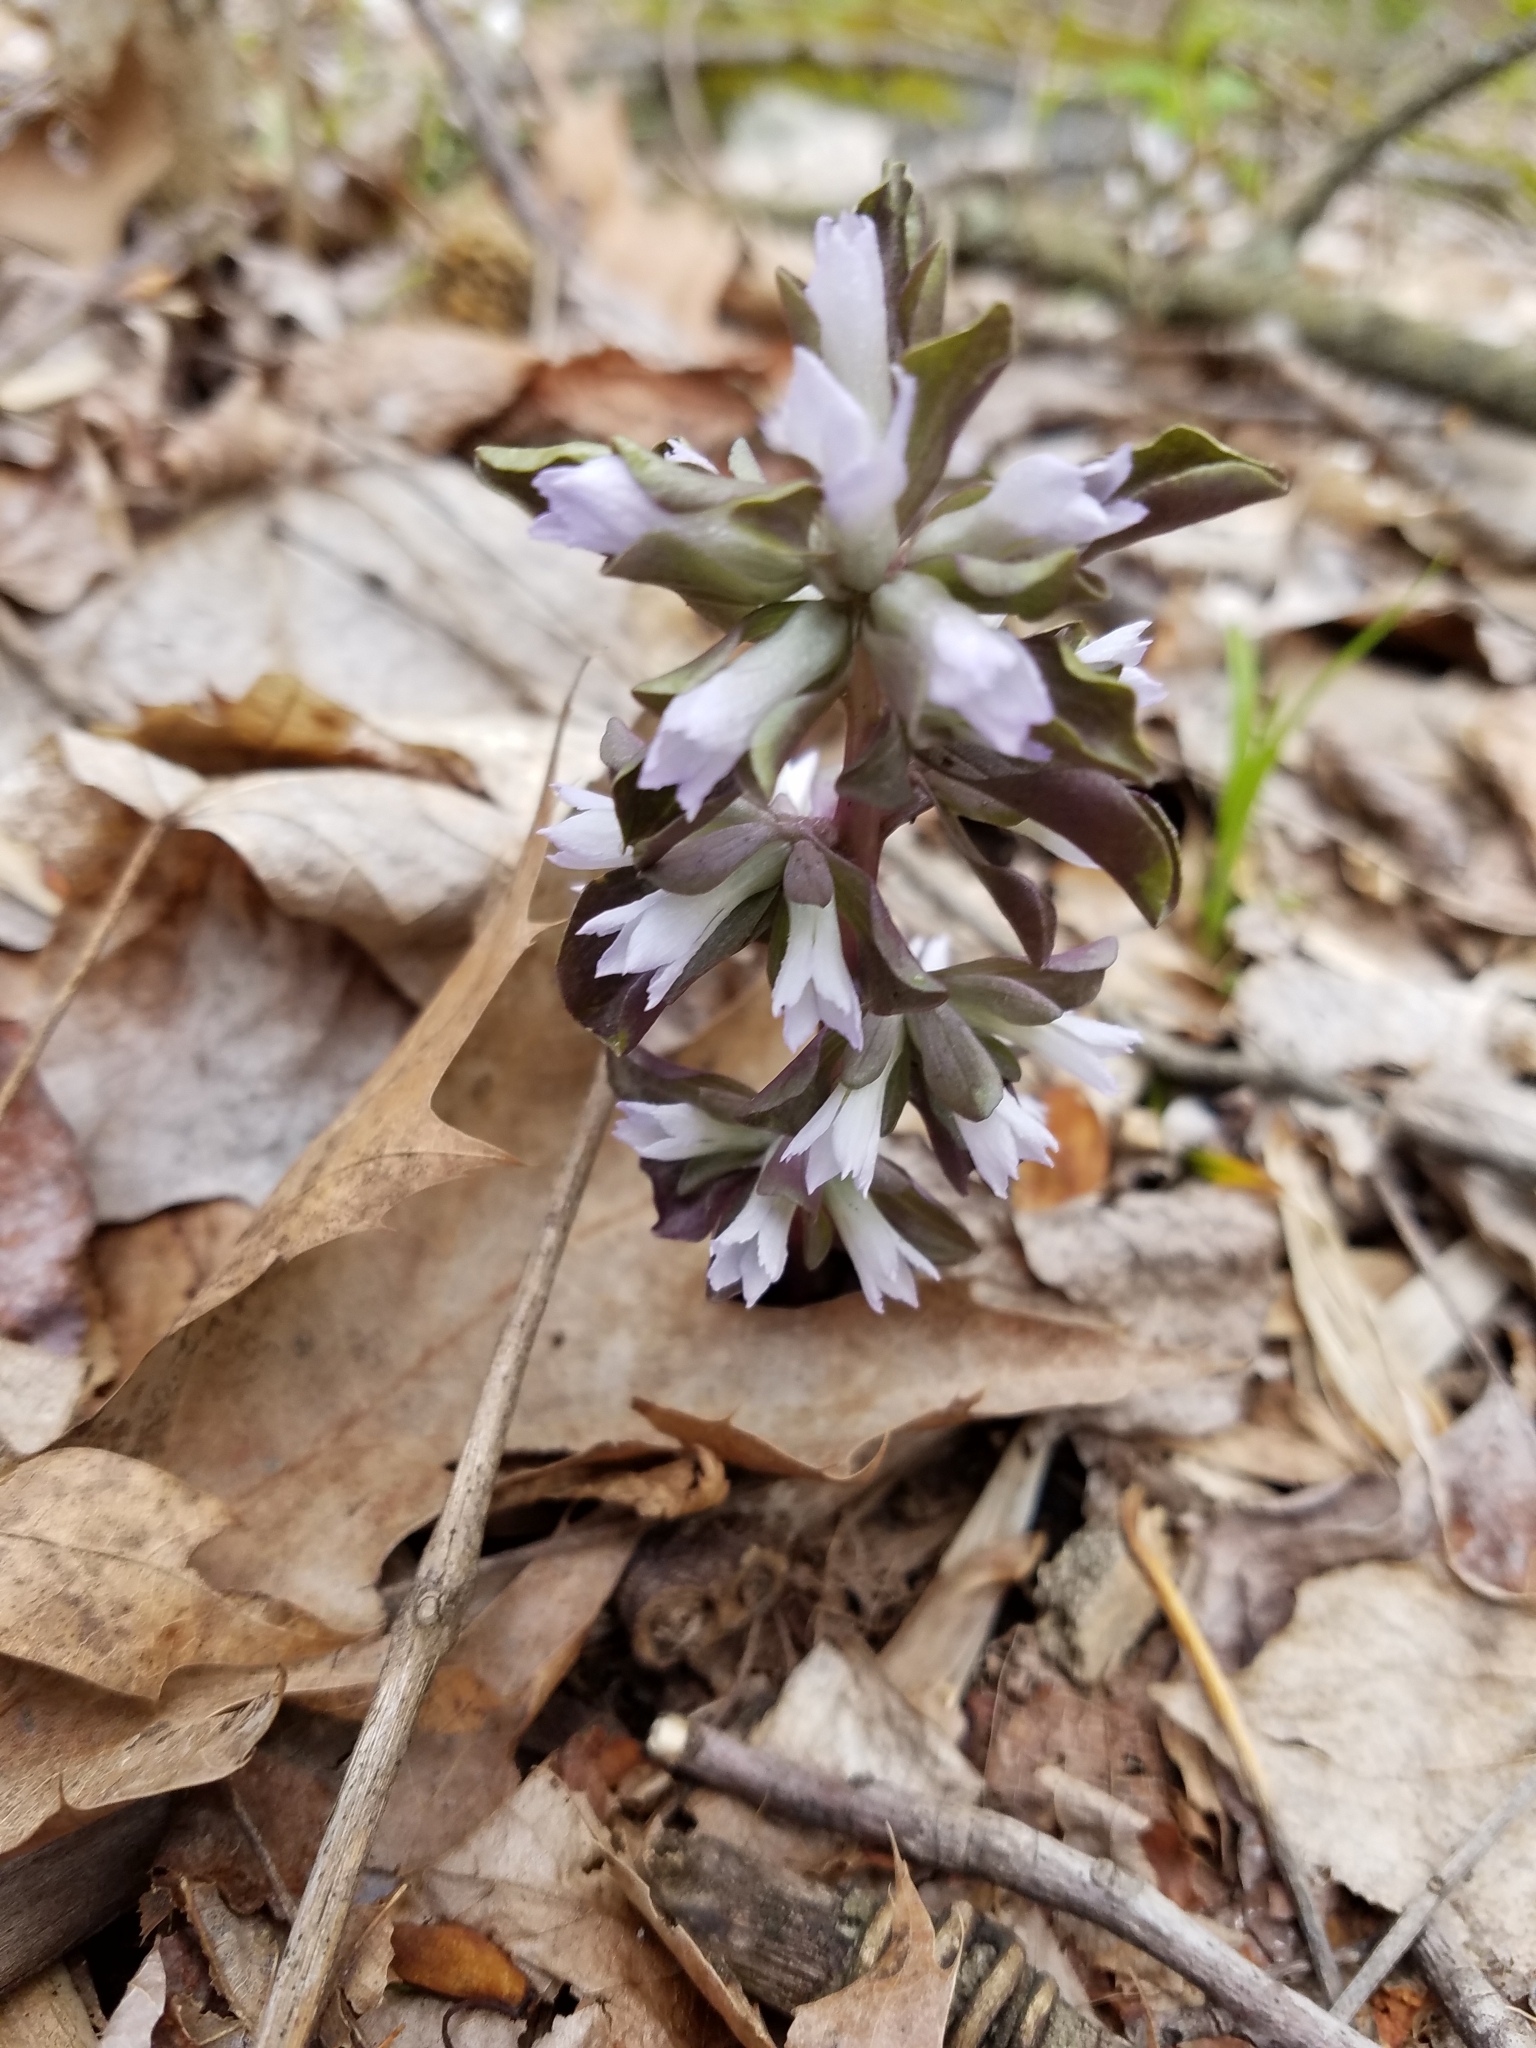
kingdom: Plantae
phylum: Tracheophyta
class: Magnoliopsida
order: Gentianales
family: Gentianaceae
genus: Obolaria
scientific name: Obolaria virginica
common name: Pennywort
